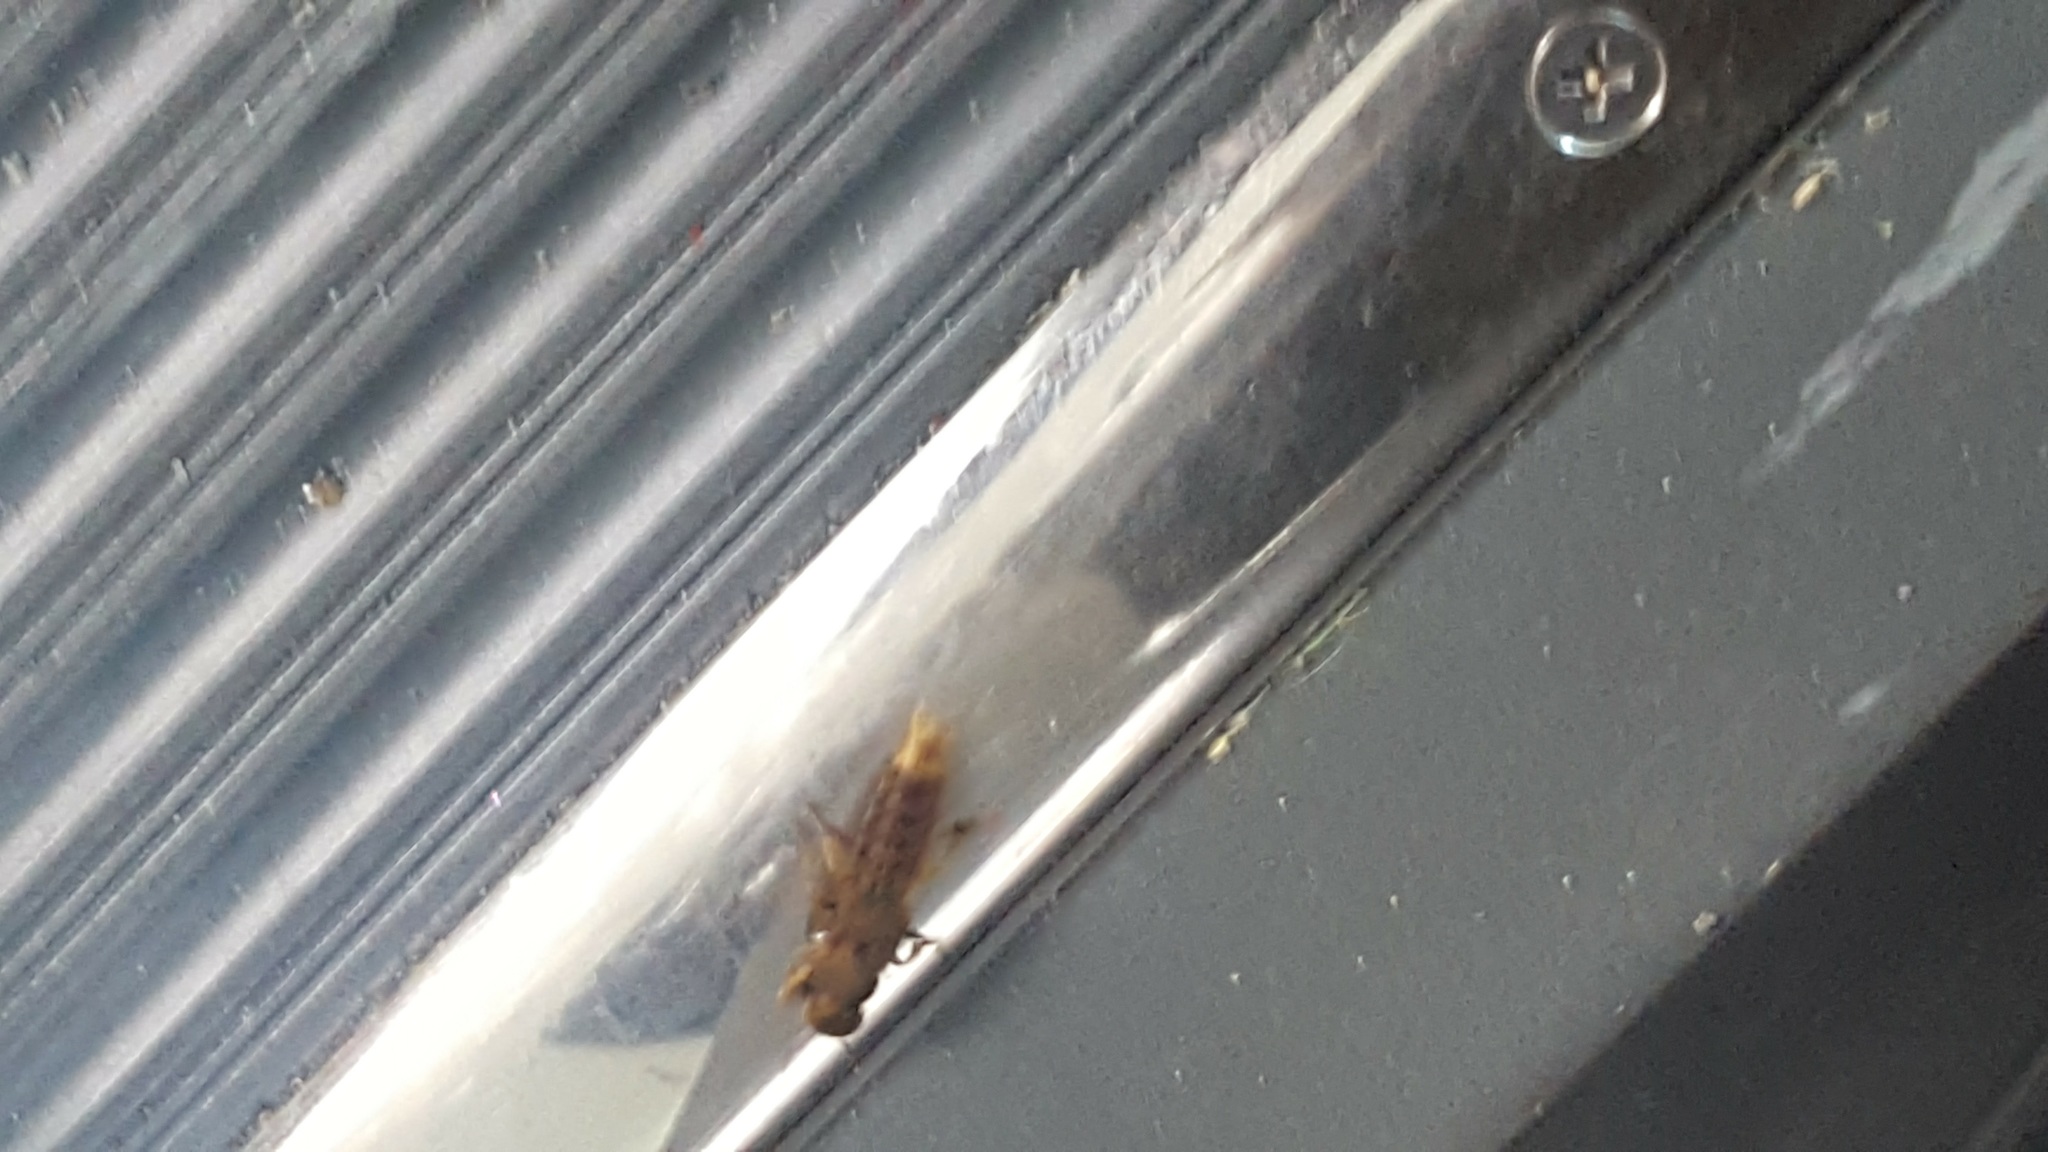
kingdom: Animalia
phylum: Arthropoda
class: Insecta
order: Coleoptera
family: Staphylinidae
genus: Platydracus
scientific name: Platydracus maculosus
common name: Brown rove beetle
